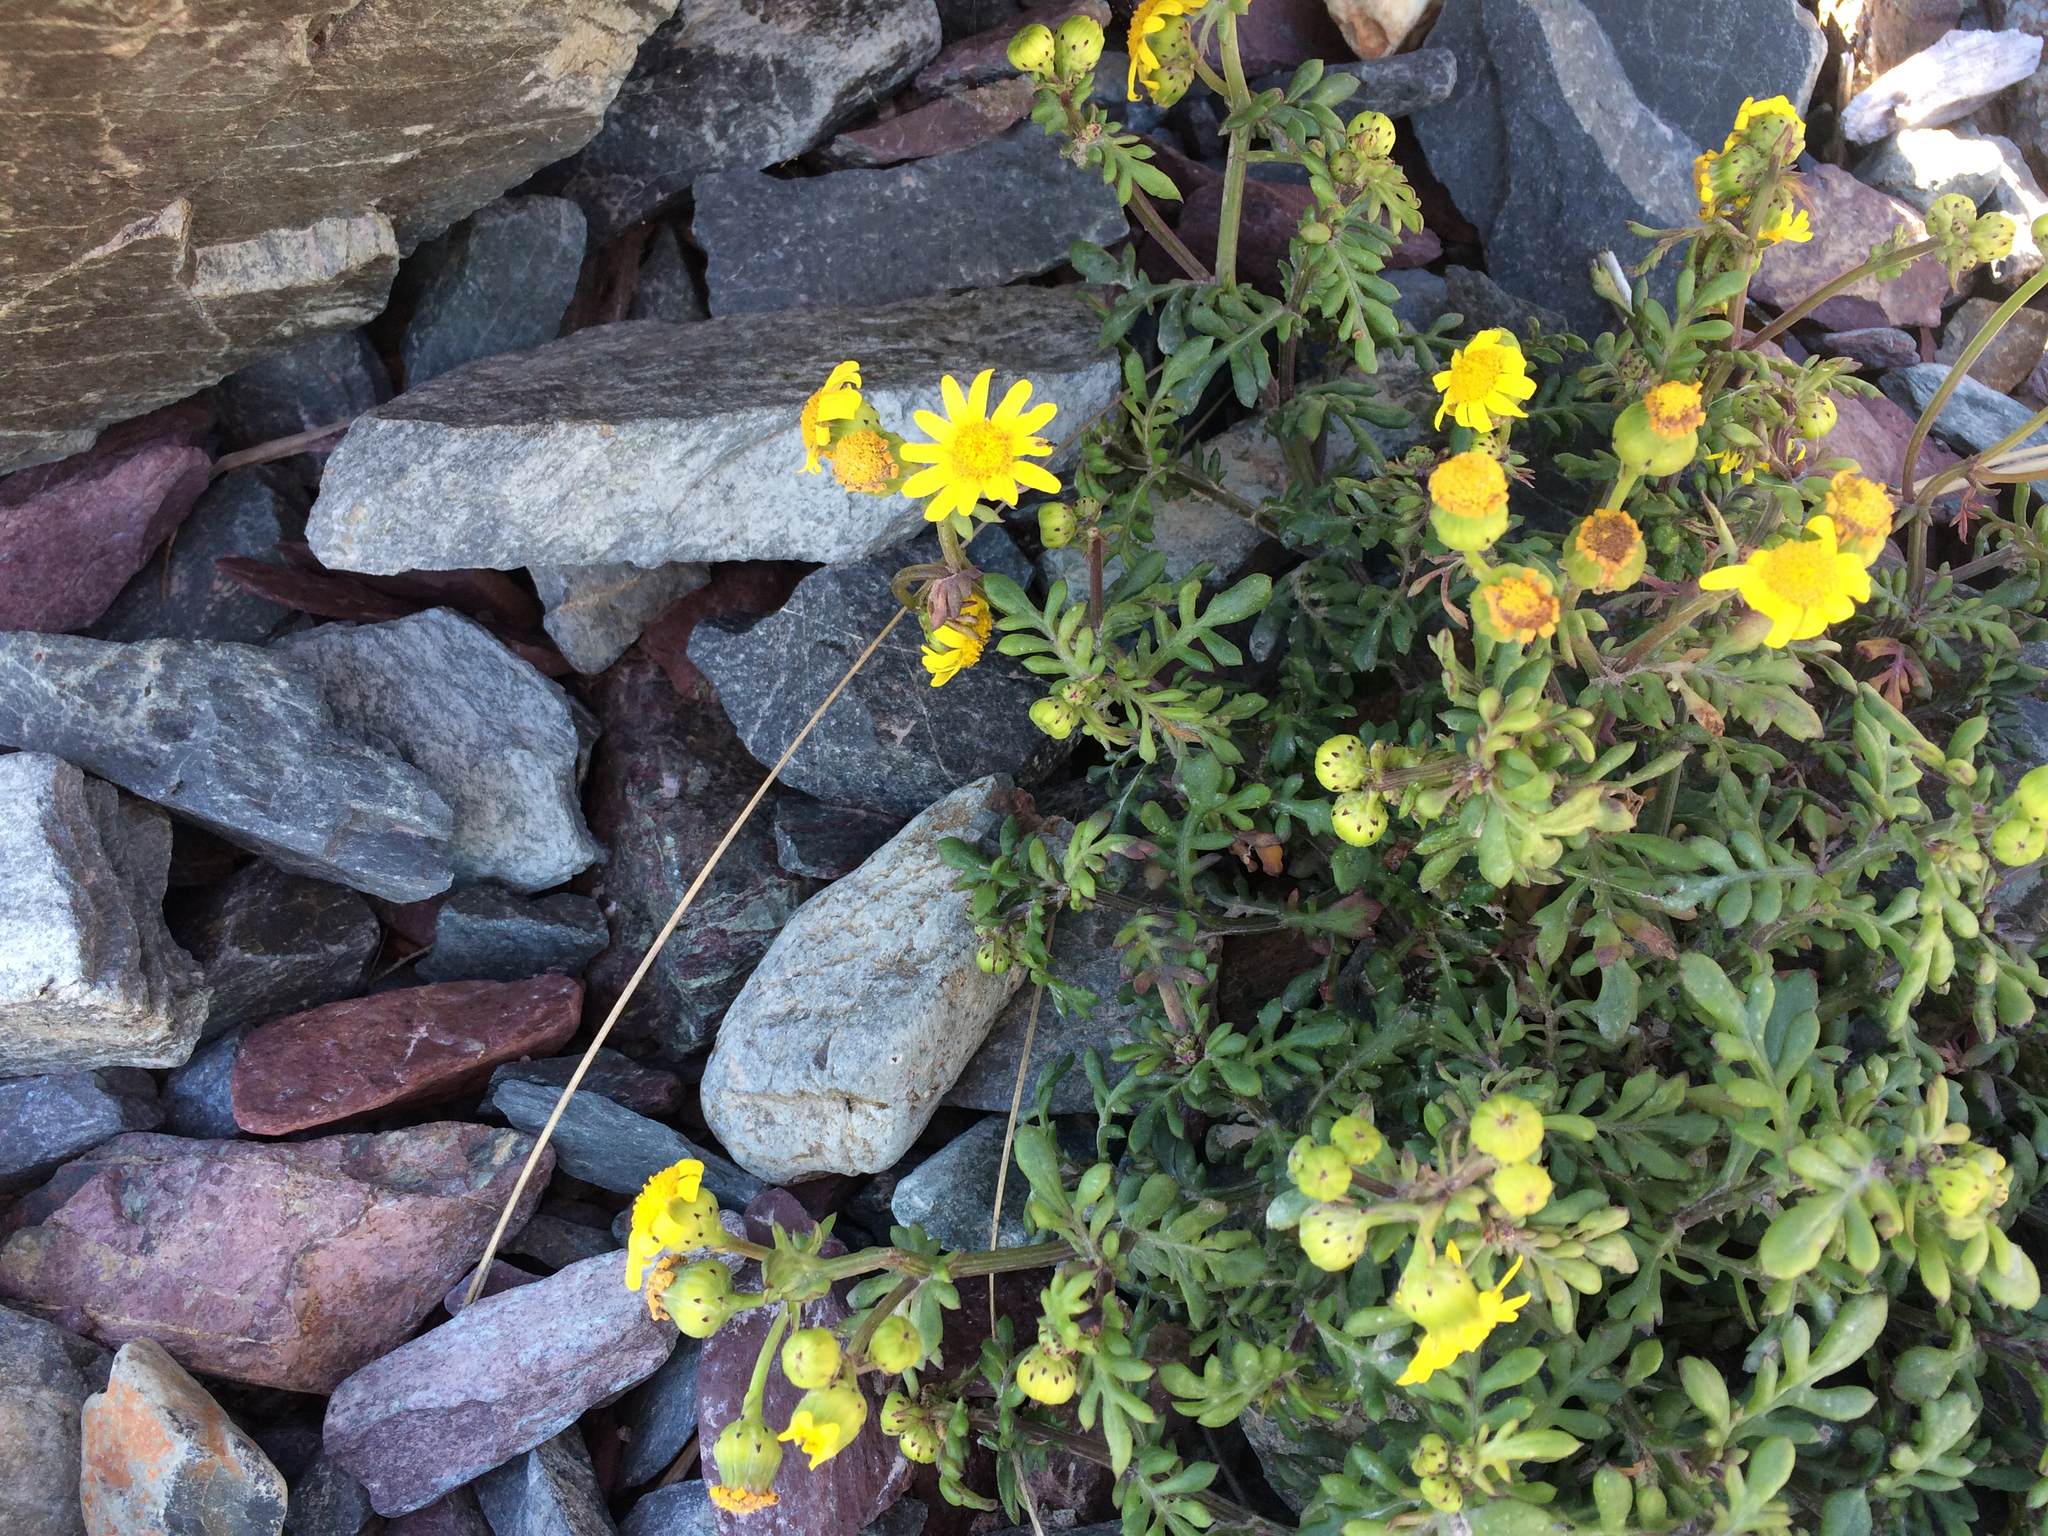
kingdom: Plantae
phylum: Tracheophyta
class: Magnoliopsida
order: Asterales
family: Asteraceae
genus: Senecio
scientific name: Senecio lautus
